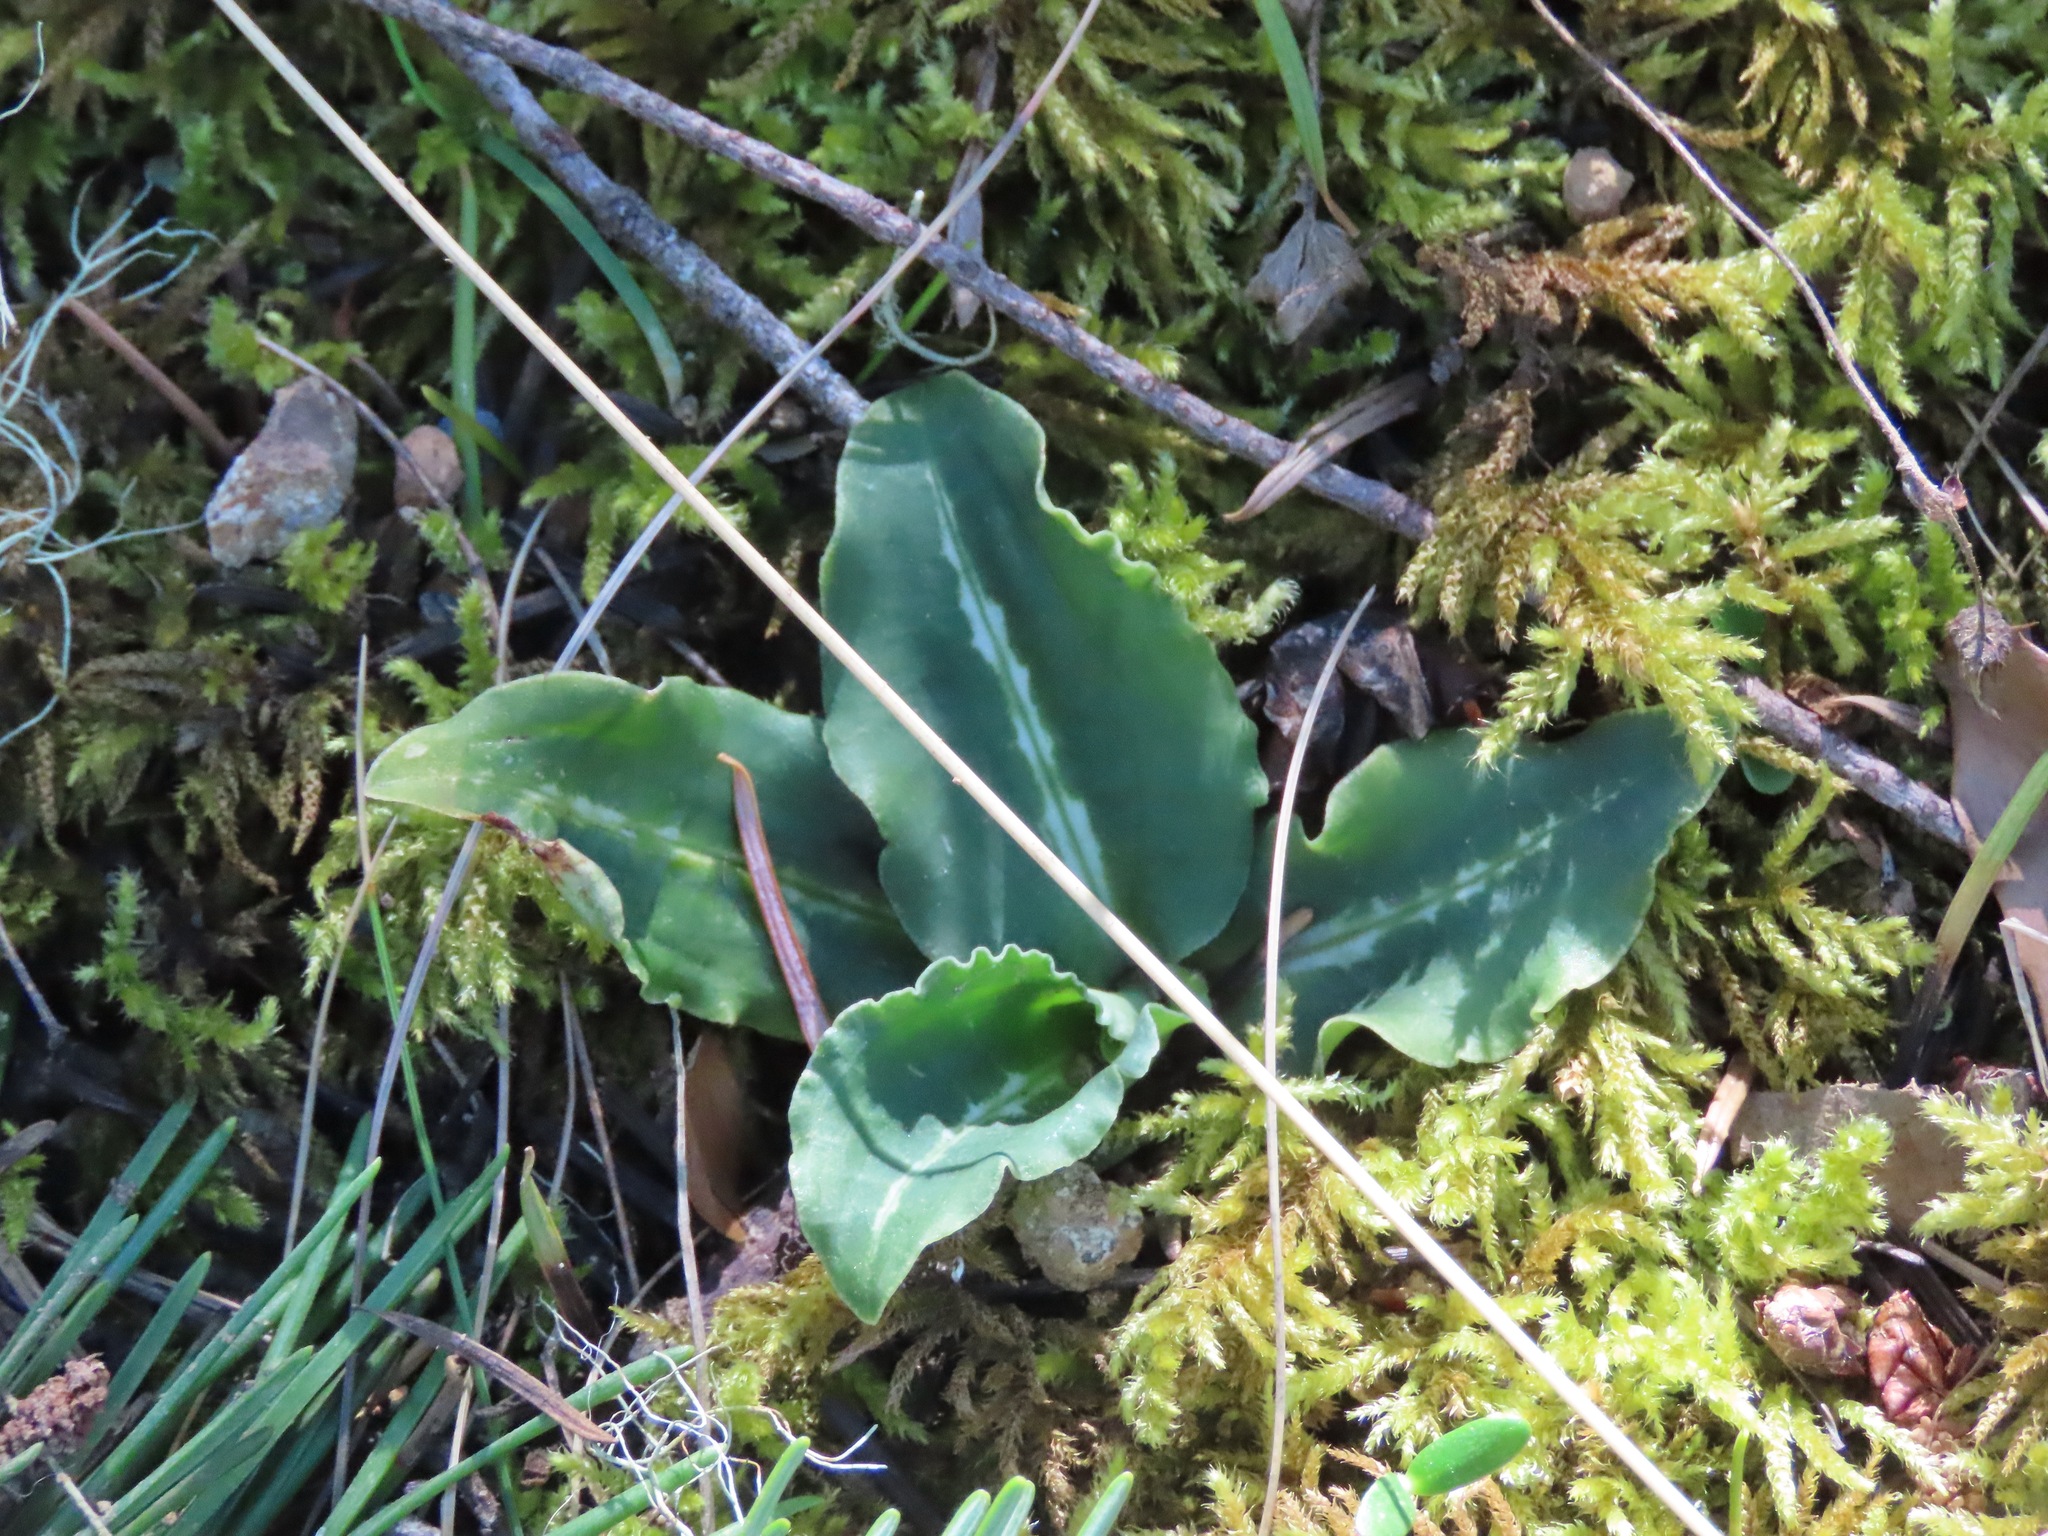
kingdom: Plantae
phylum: Tracheophyta
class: Liliopsida
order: Asparagales
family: Orchidaceae
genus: Goodyera
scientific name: Goodyera oblongifolia
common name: Giant rattlesnake-plantain
